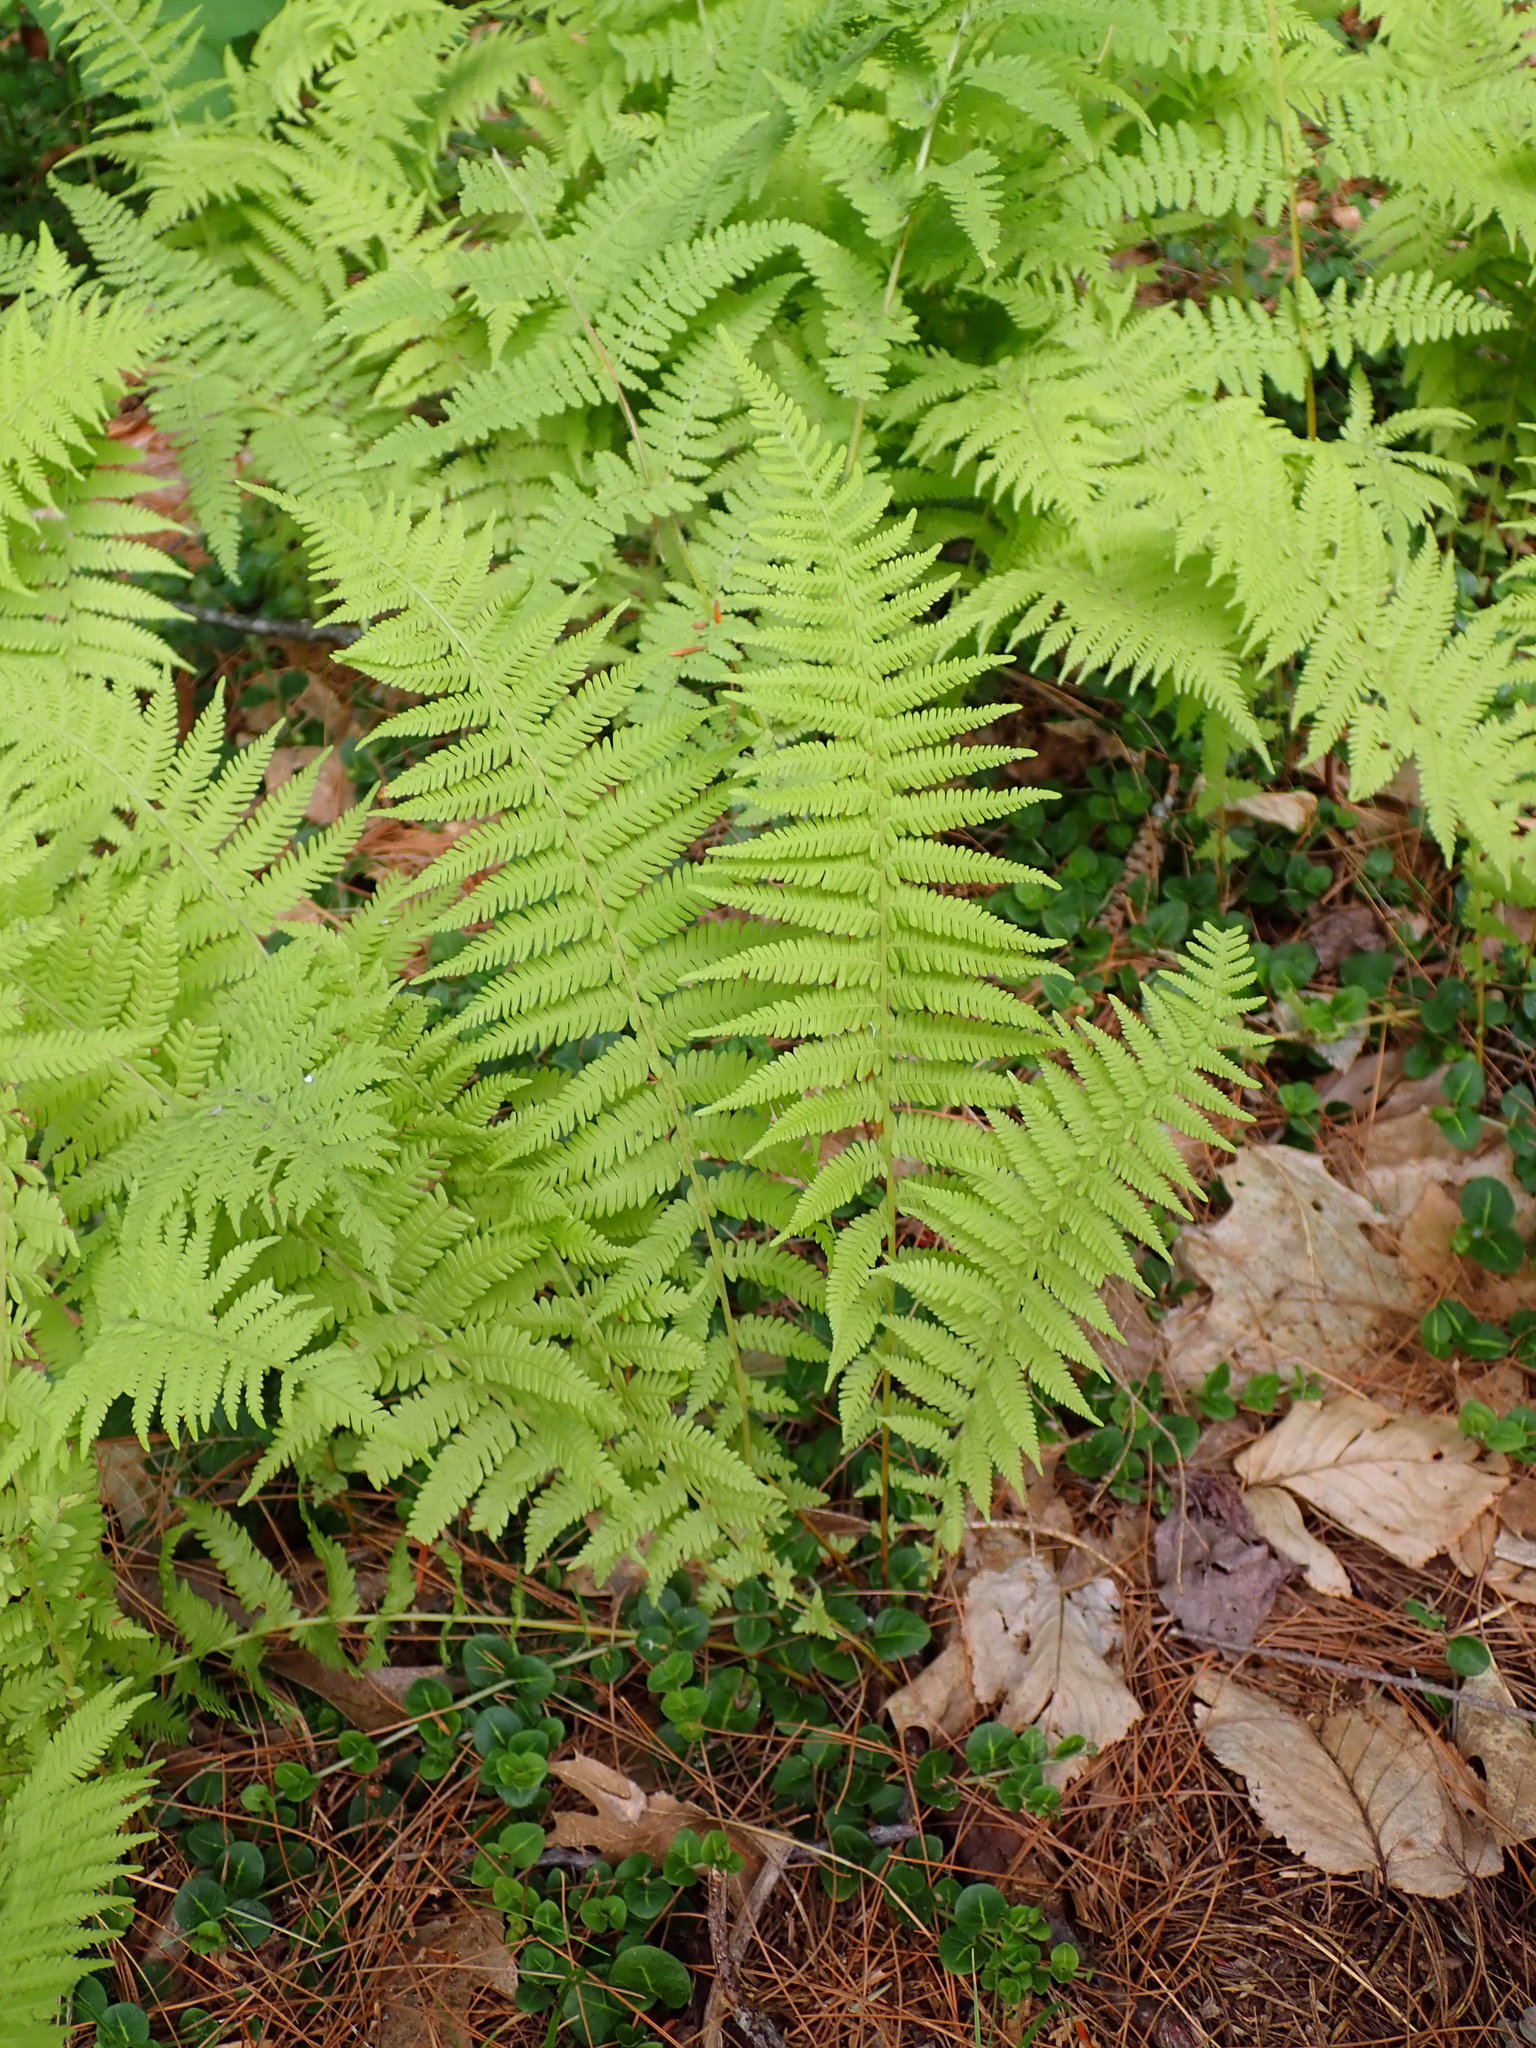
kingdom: Plantae
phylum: Tracheophyta
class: Polypodiopsida
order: Polypodiales
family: Thelypteridaceae
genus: Amauropelta
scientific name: Amauropelta noveboracensis
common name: New york fern
